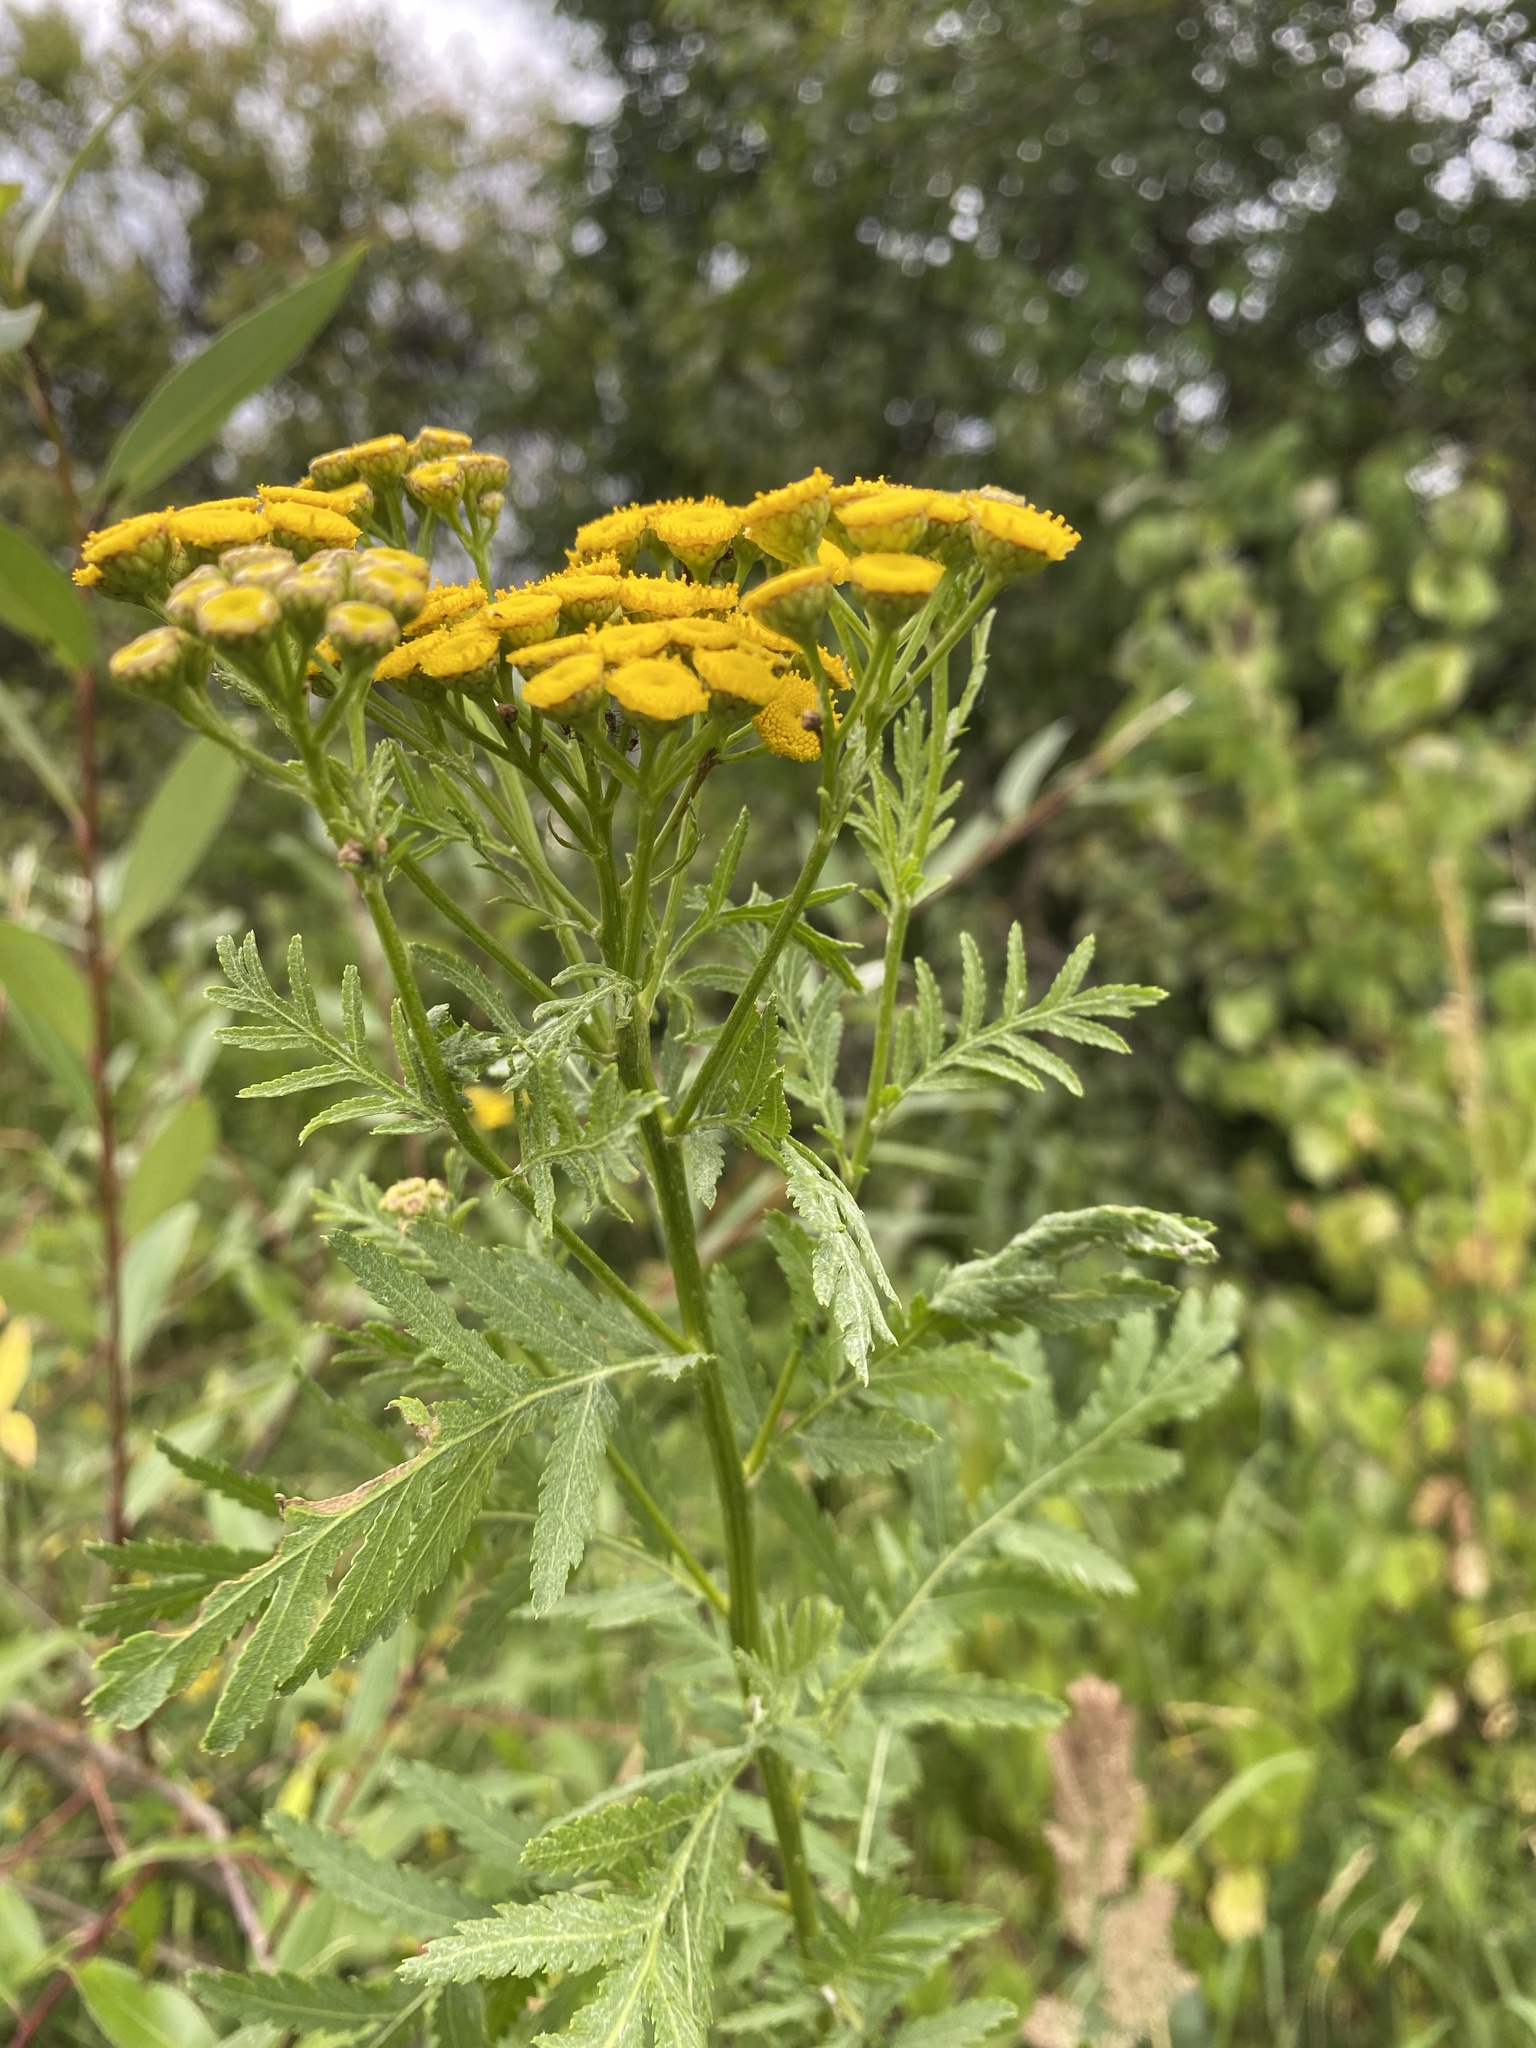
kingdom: Plantae
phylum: Tracheophyta
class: Magnoliopsida
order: Asterales
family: Asteraceae
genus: Tanacetum
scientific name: Tanacetum vulgare
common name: Common tansy
